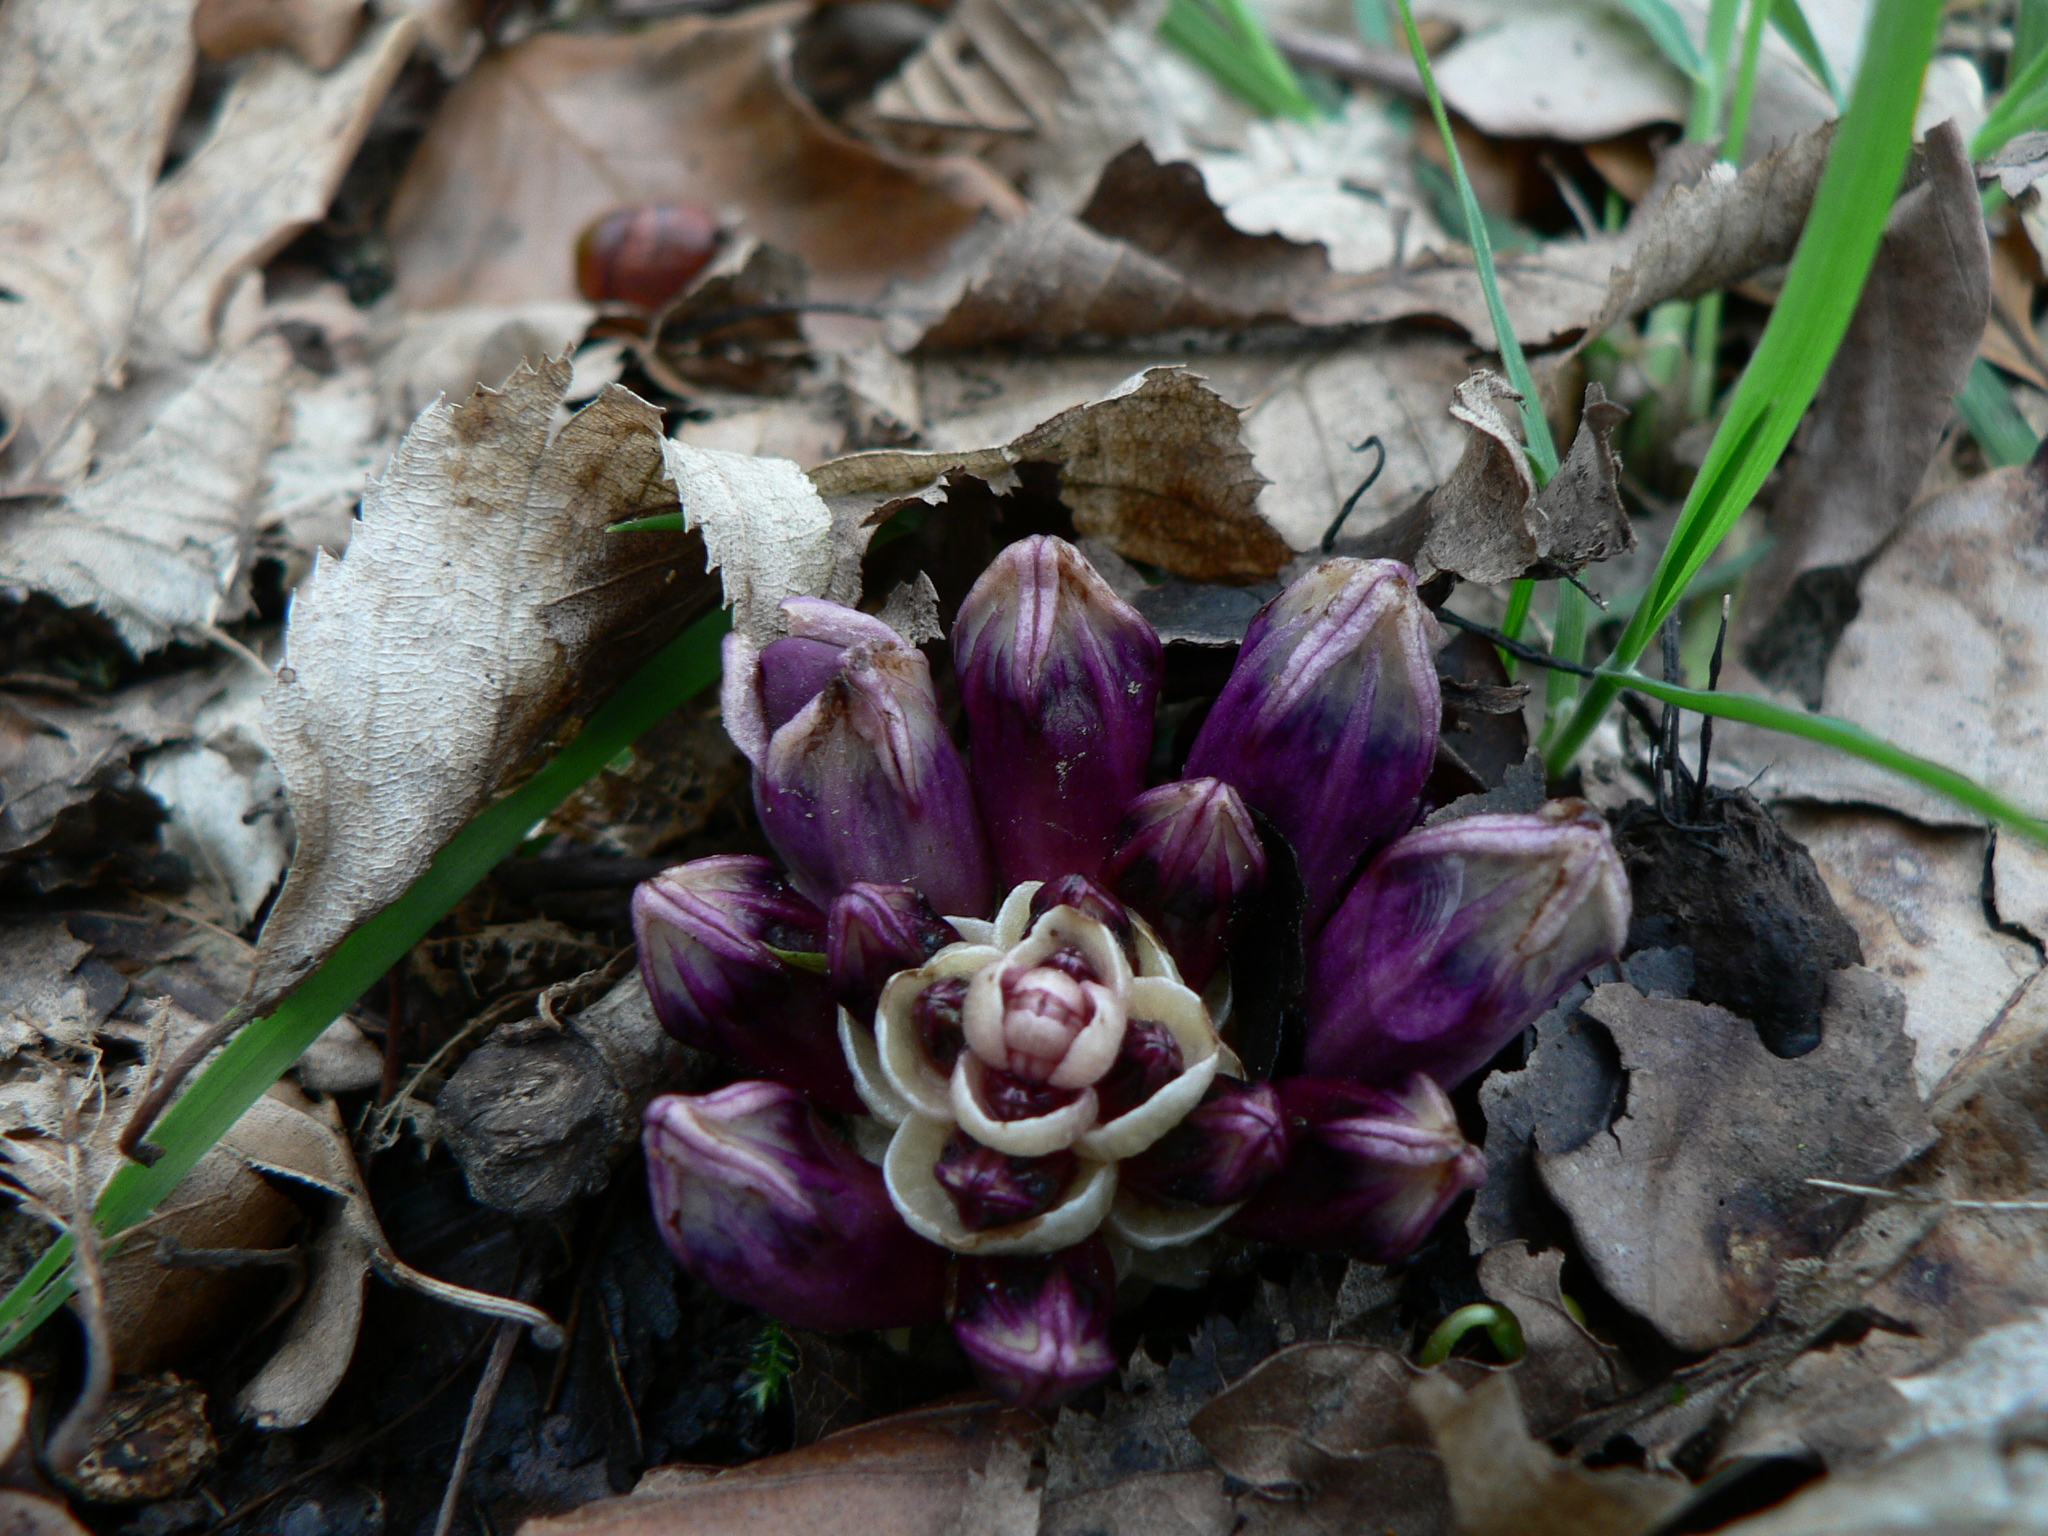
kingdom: Plantae
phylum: Tracheophyta
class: Magnoliopsida
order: Lamiales
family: Orobanchaceae
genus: Lathraea
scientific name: Lathraea clandestina
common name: Purple toothwort
